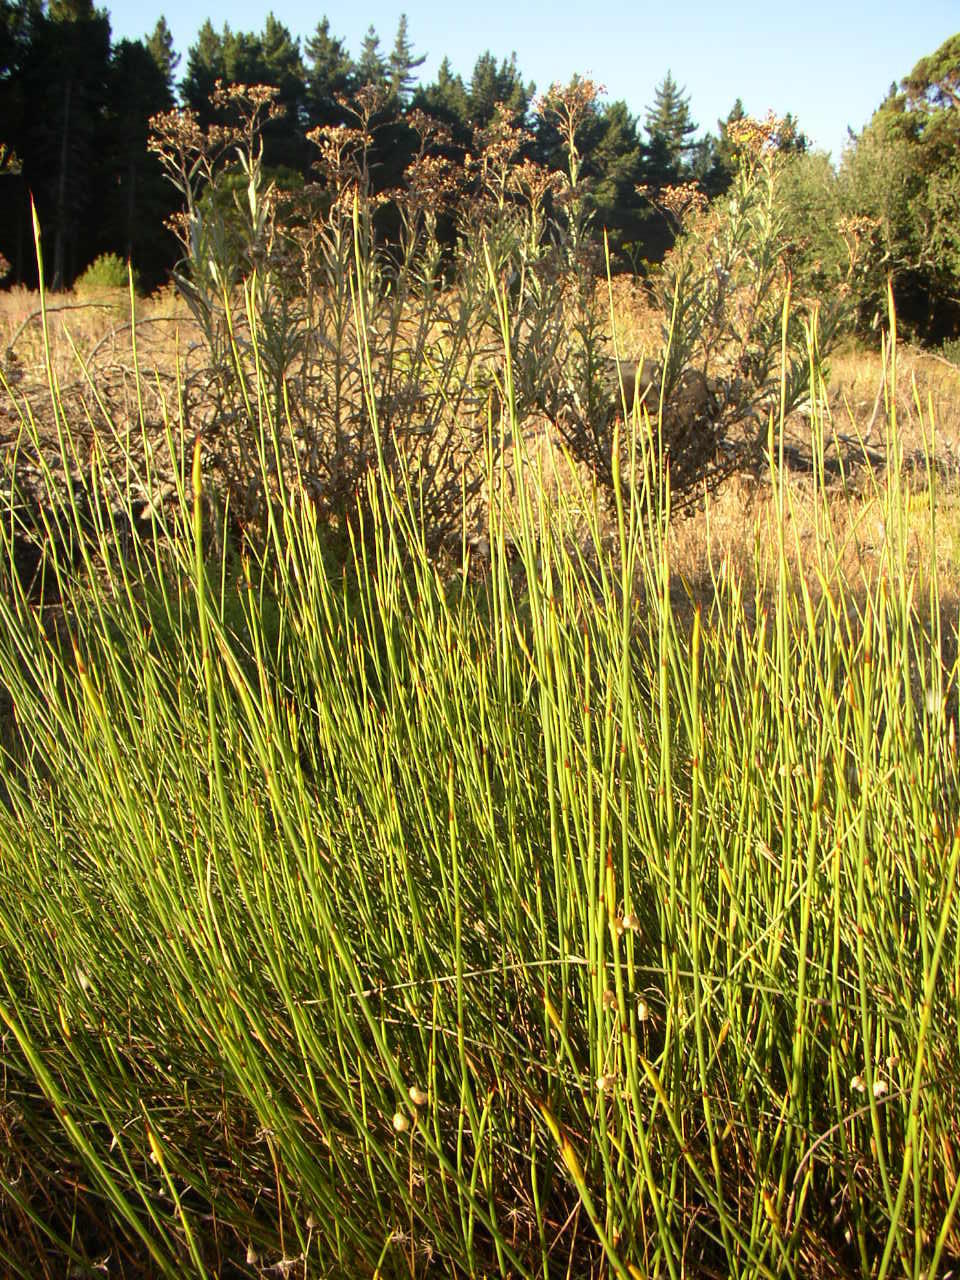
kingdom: Plantae
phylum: Tracheophyta
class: Liliopsida
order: Poales
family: Restionaceae
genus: Mastersiella
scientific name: Mastersiella digitata
